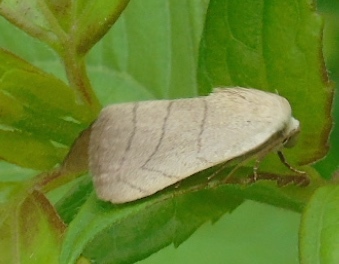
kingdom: Animalia
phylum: Arthropoda
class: Insecta
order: Lepidoptera
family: Noctuidae
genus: Bagisara
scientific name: Bagisara
